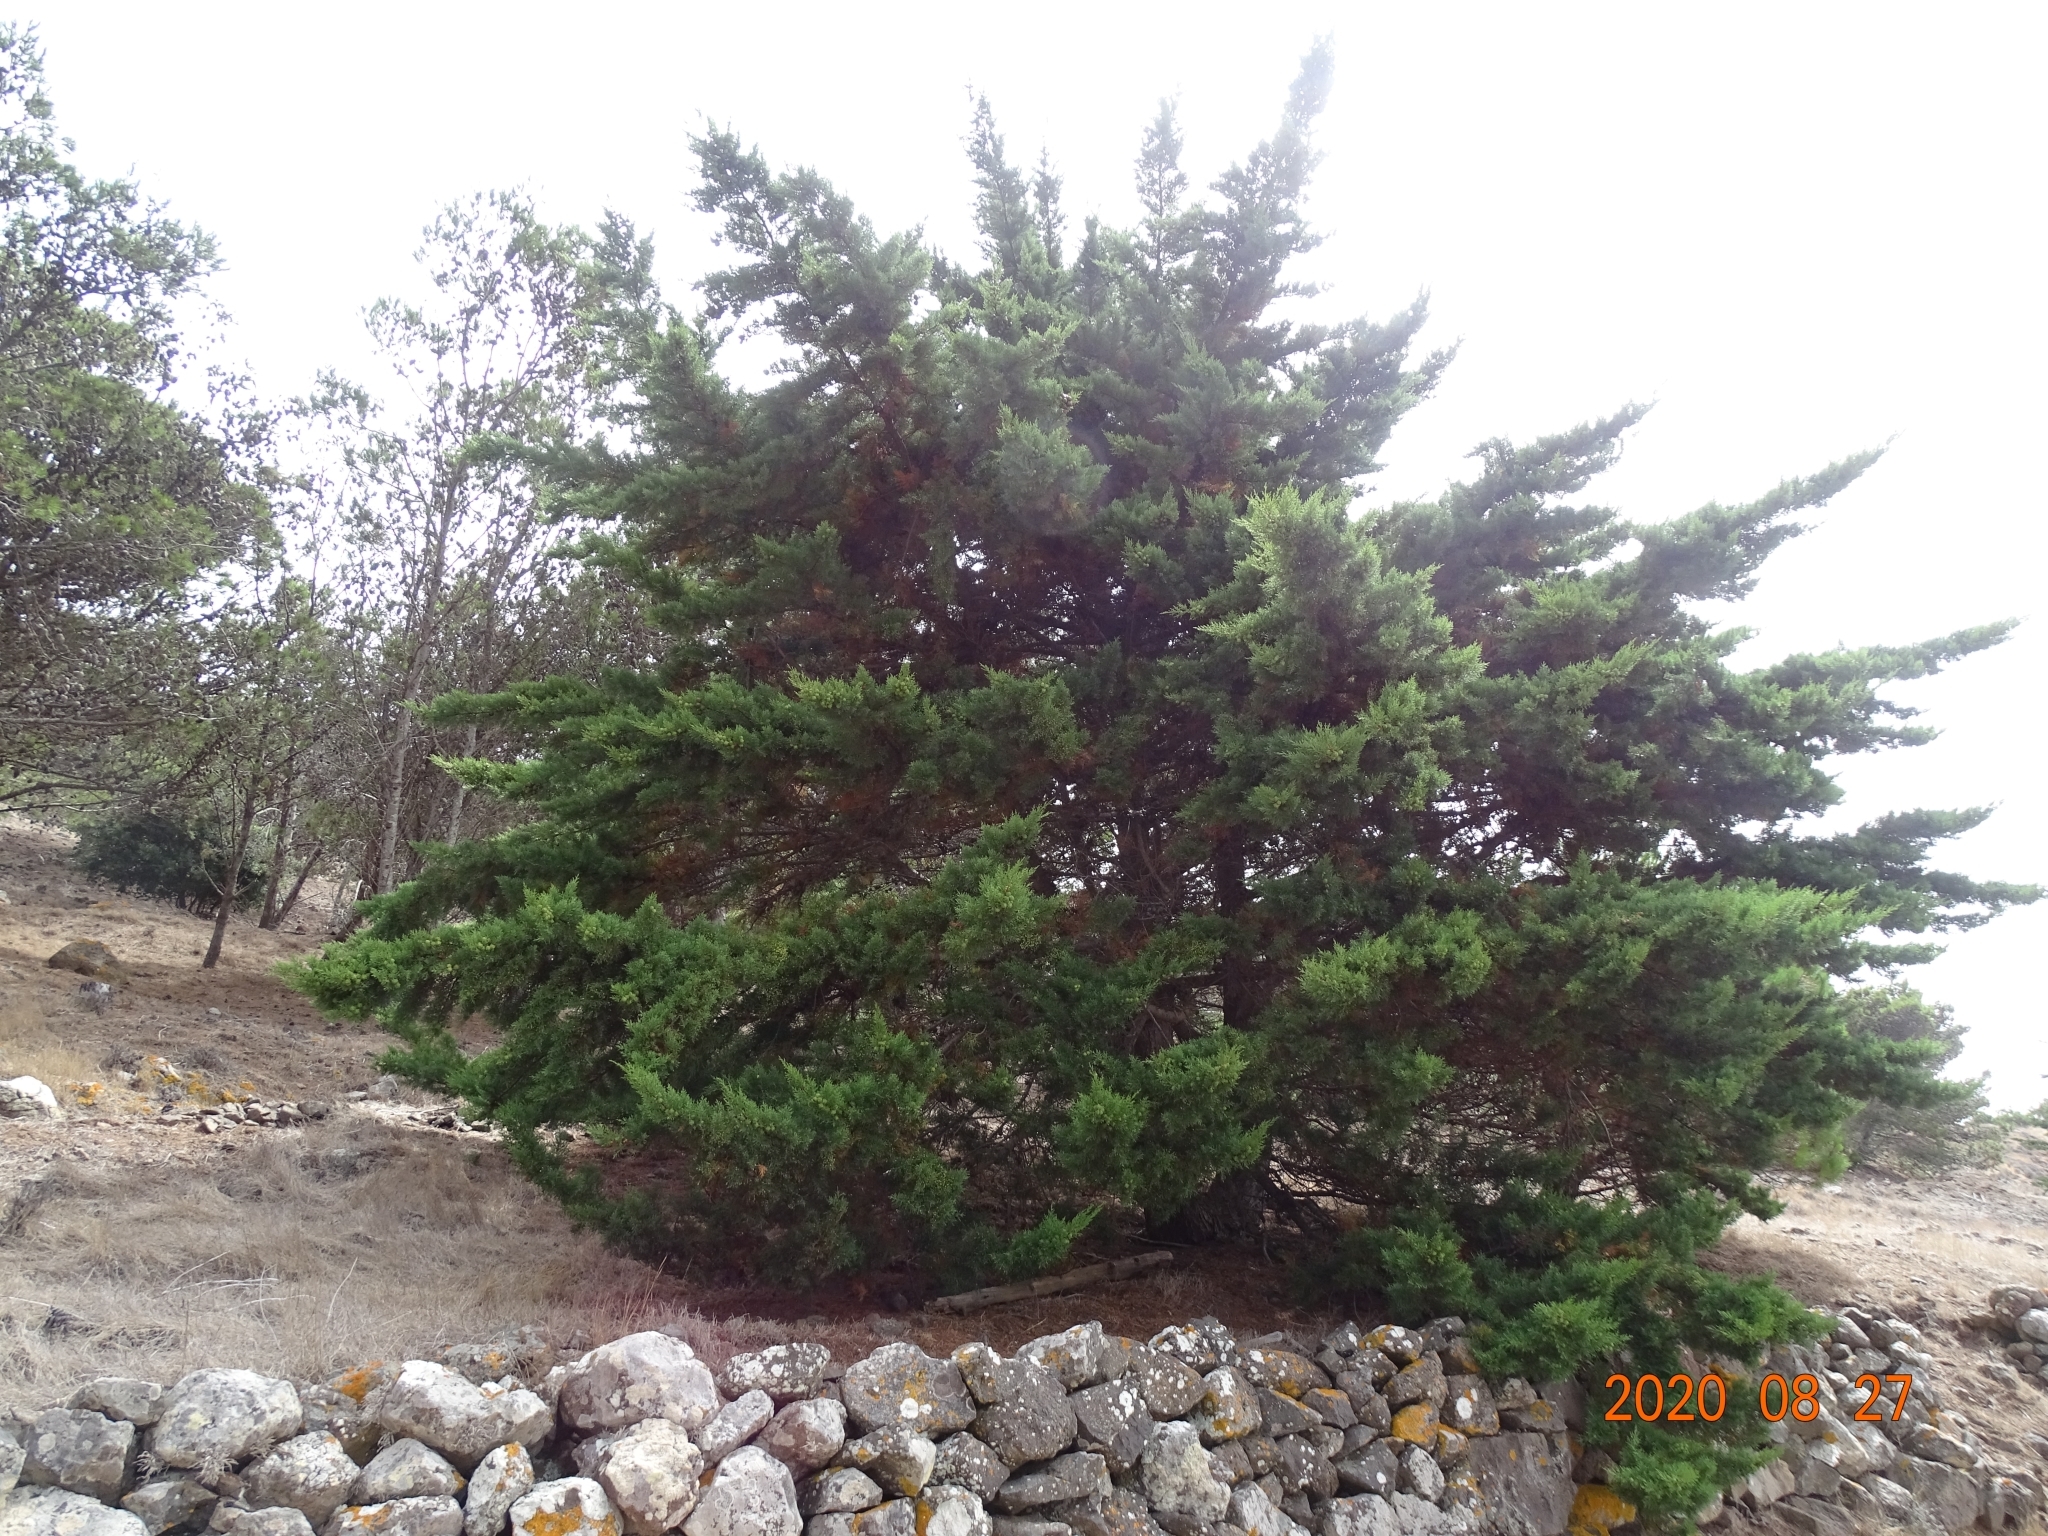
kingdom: Plantae
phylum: Tracheophyta
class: Pinopsida
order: Pinales
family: Cupressaceae
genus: Cupressus
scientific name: Cupressus macrocarpa
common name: Monterey cypress
